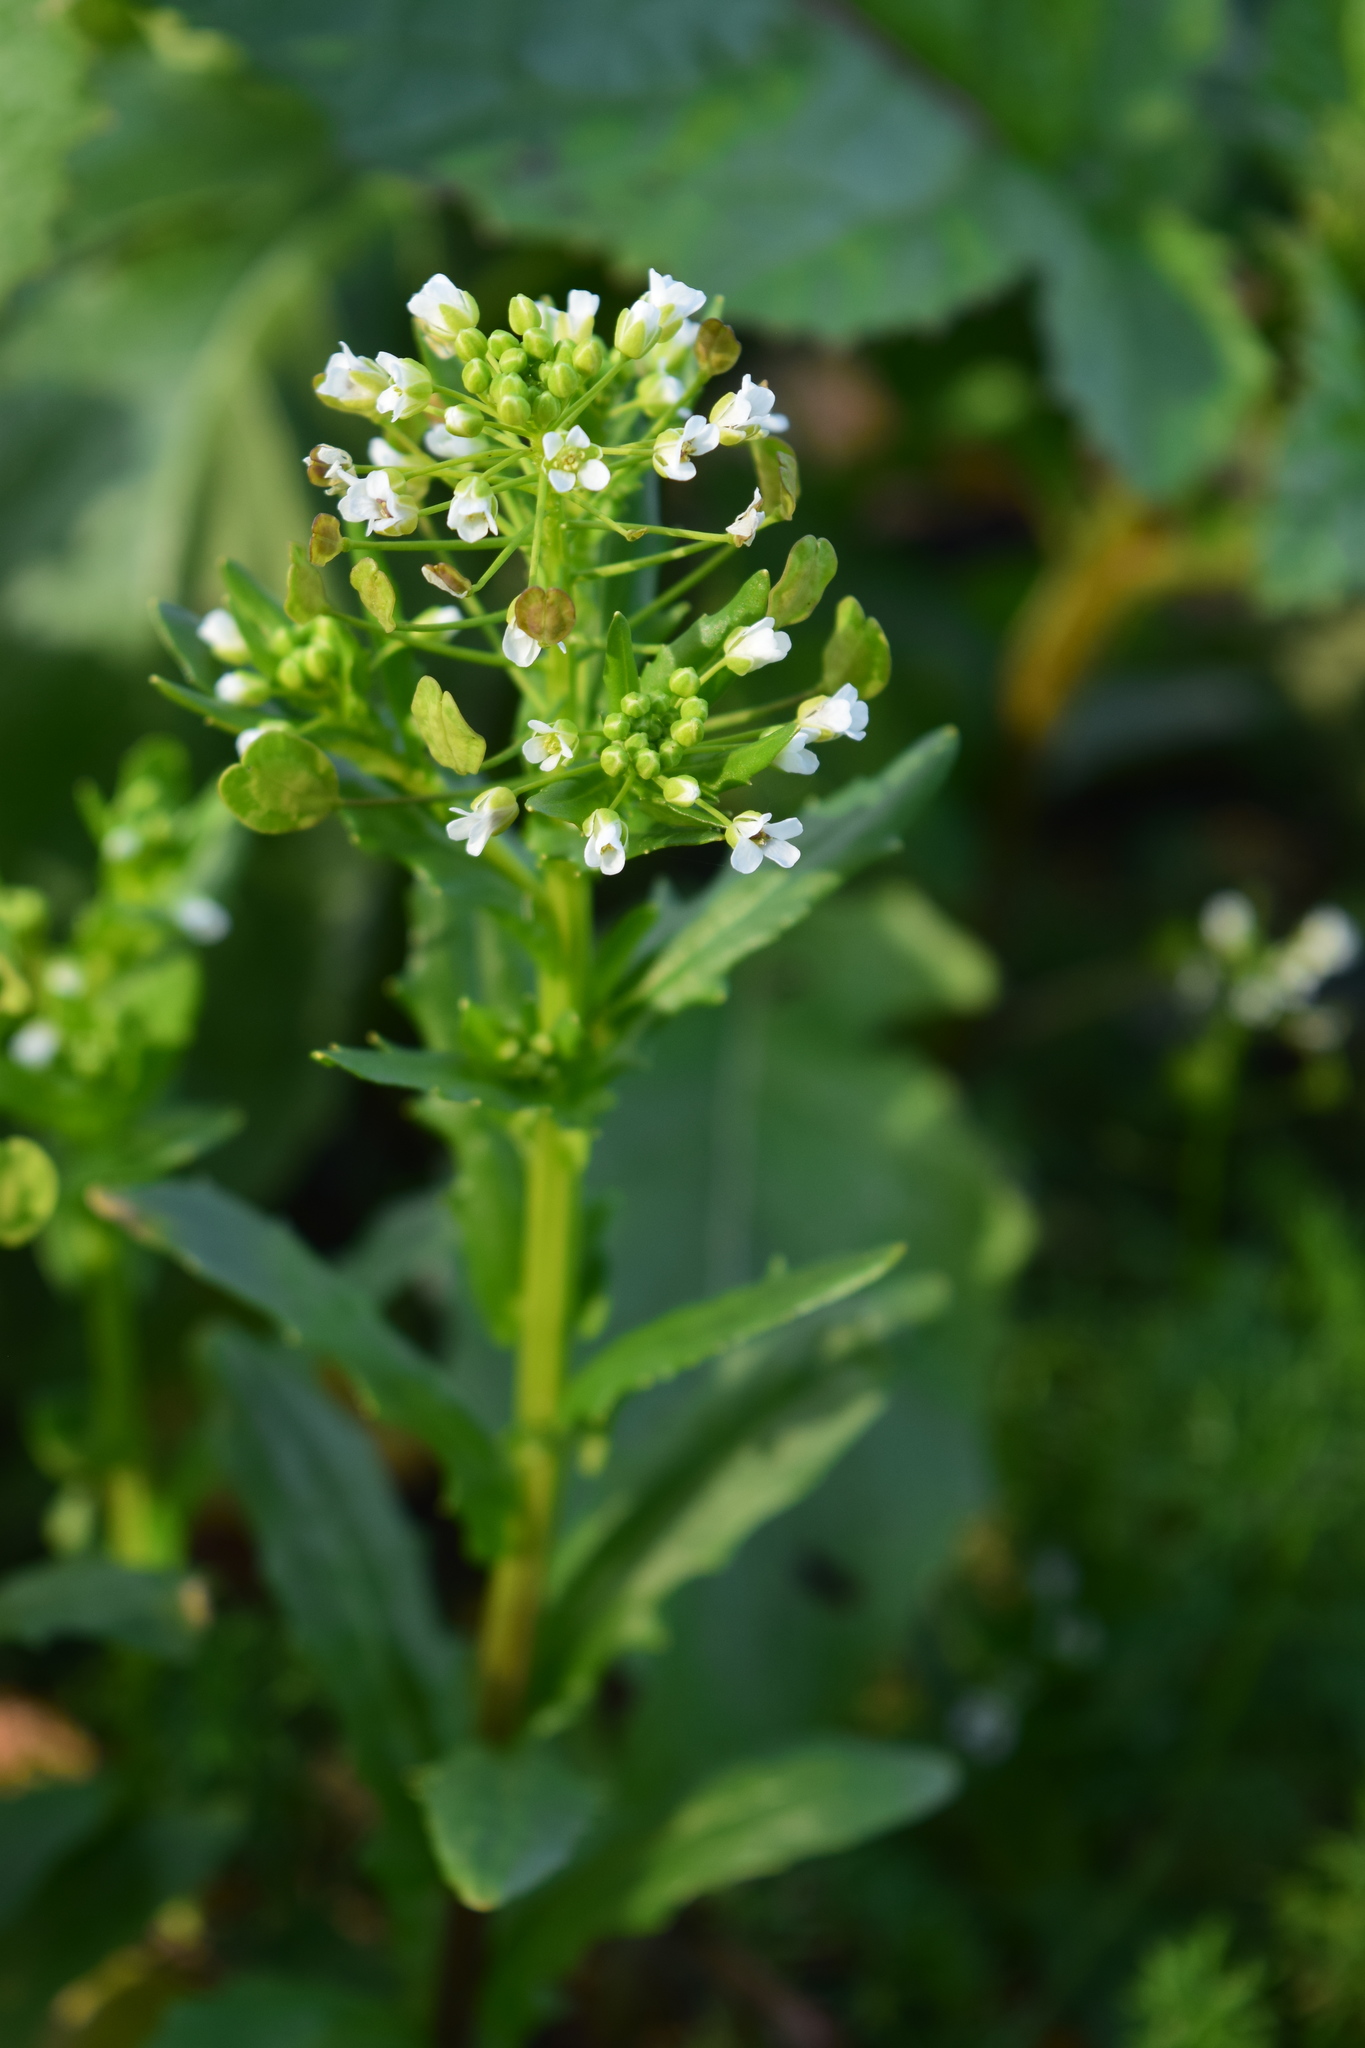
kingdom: Plantae
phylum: Tracheophyta
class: Magnoliopsida
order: Brassicales
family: Brassicaceae
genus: Thlaspi
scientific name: Thlaspi arvense
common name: Field pennycress
